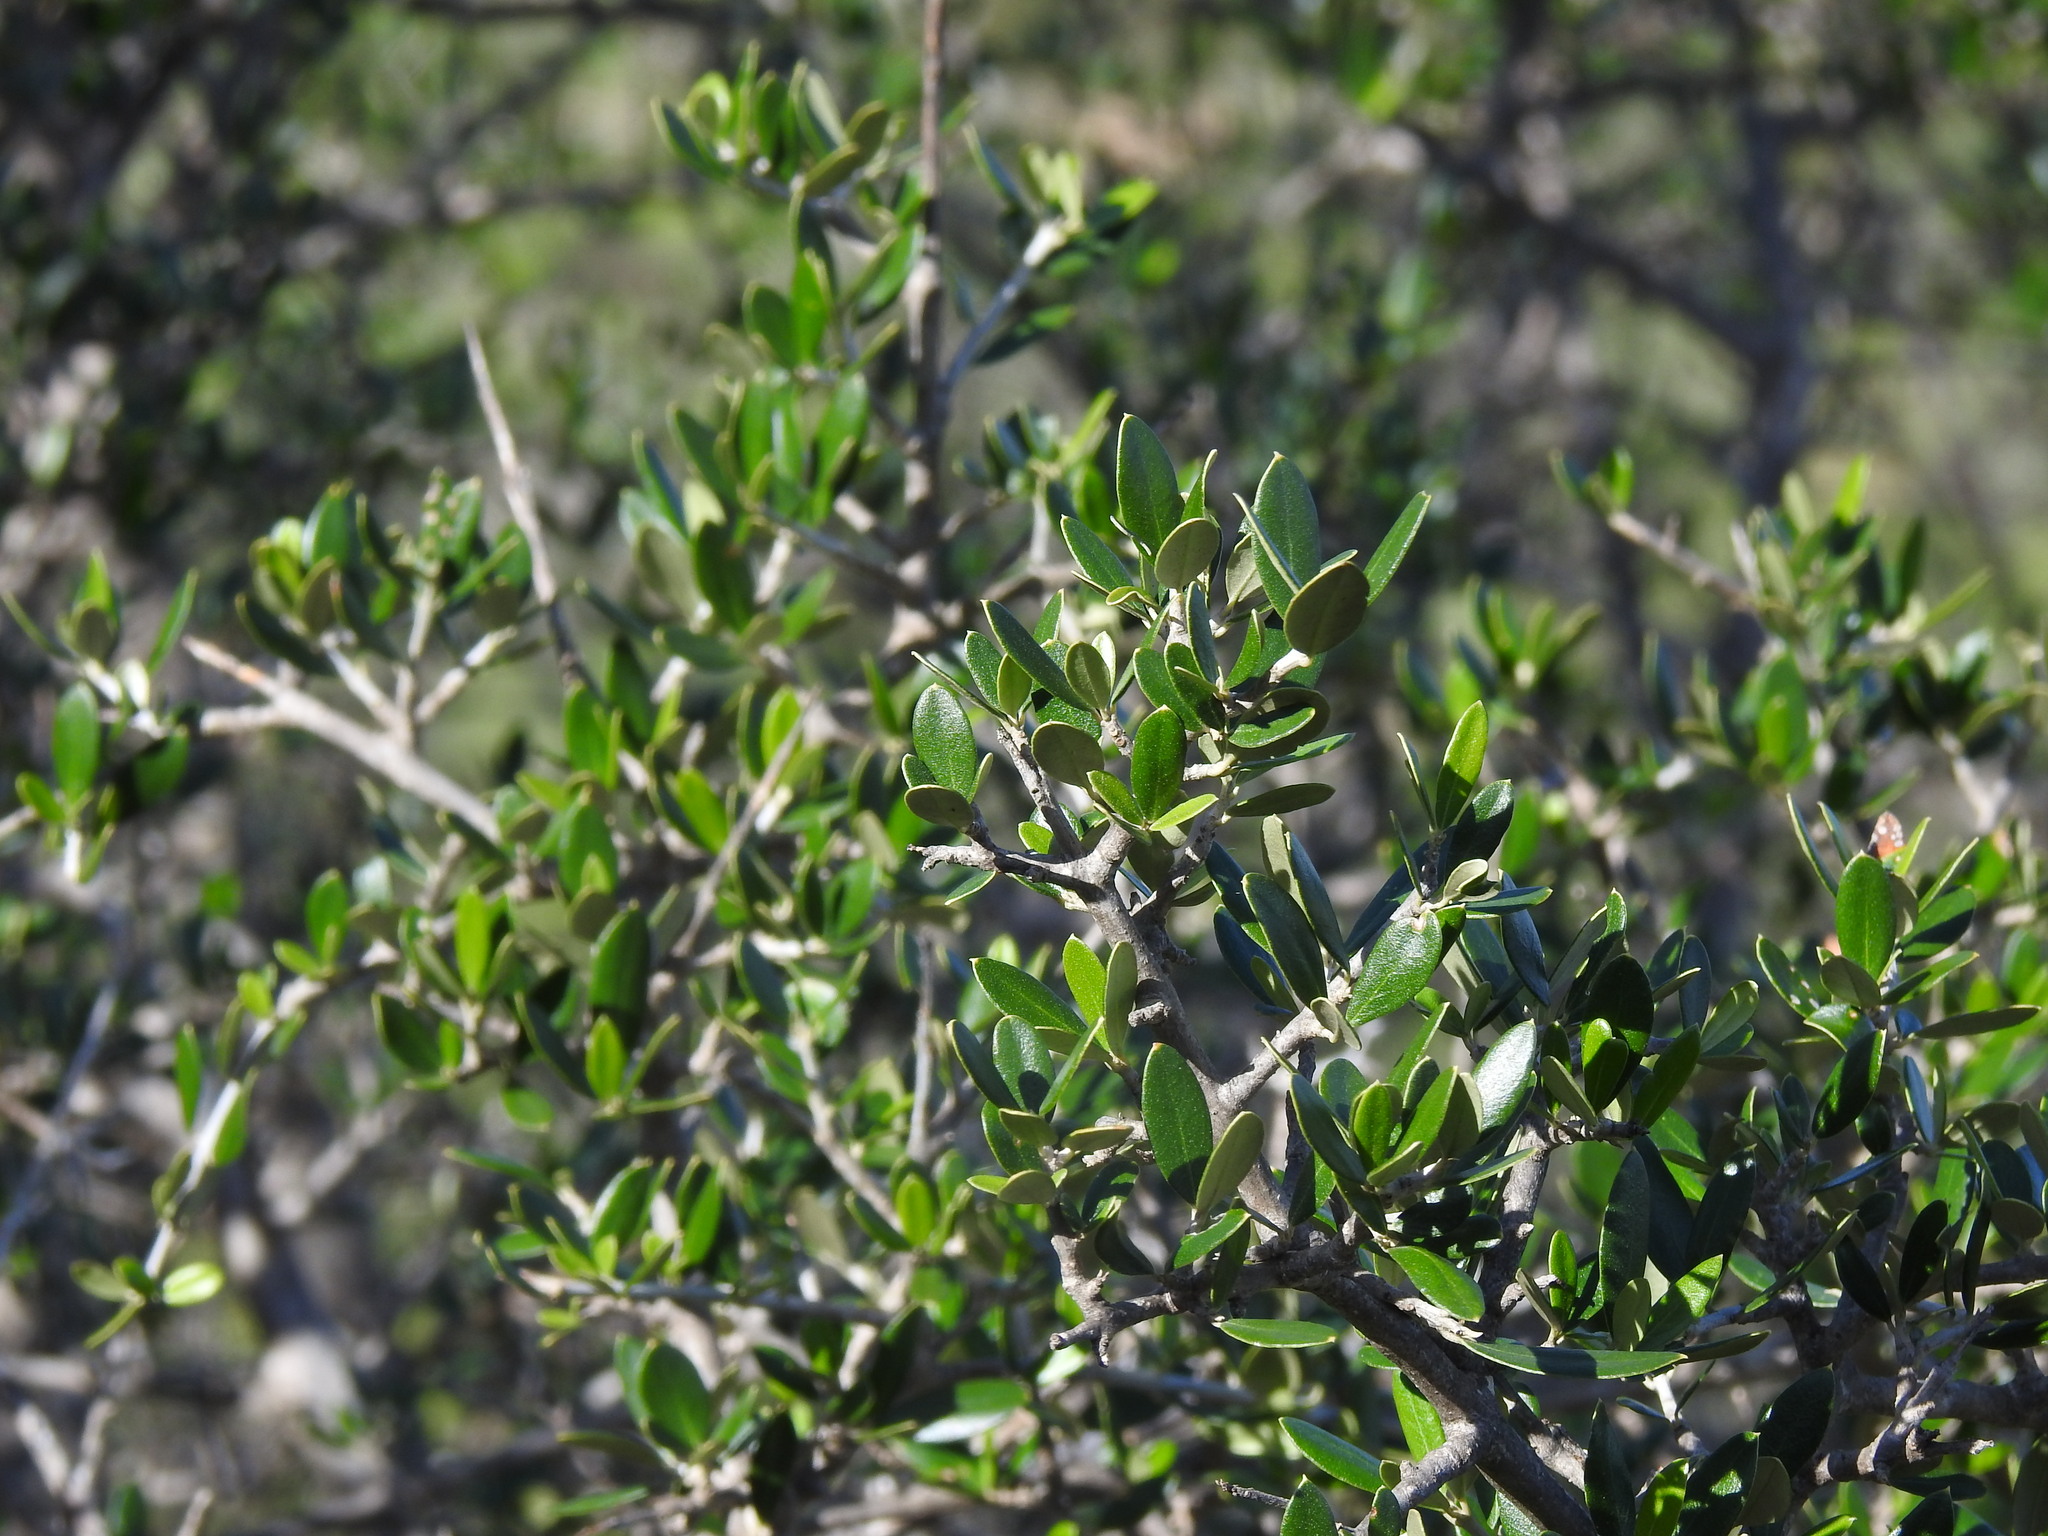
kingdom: Plantae
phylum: Tracheophyta
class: Magnoliopsida
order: Lamiales
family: Oleaceae
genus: Olea
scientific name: Olea europaea
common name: Olive
